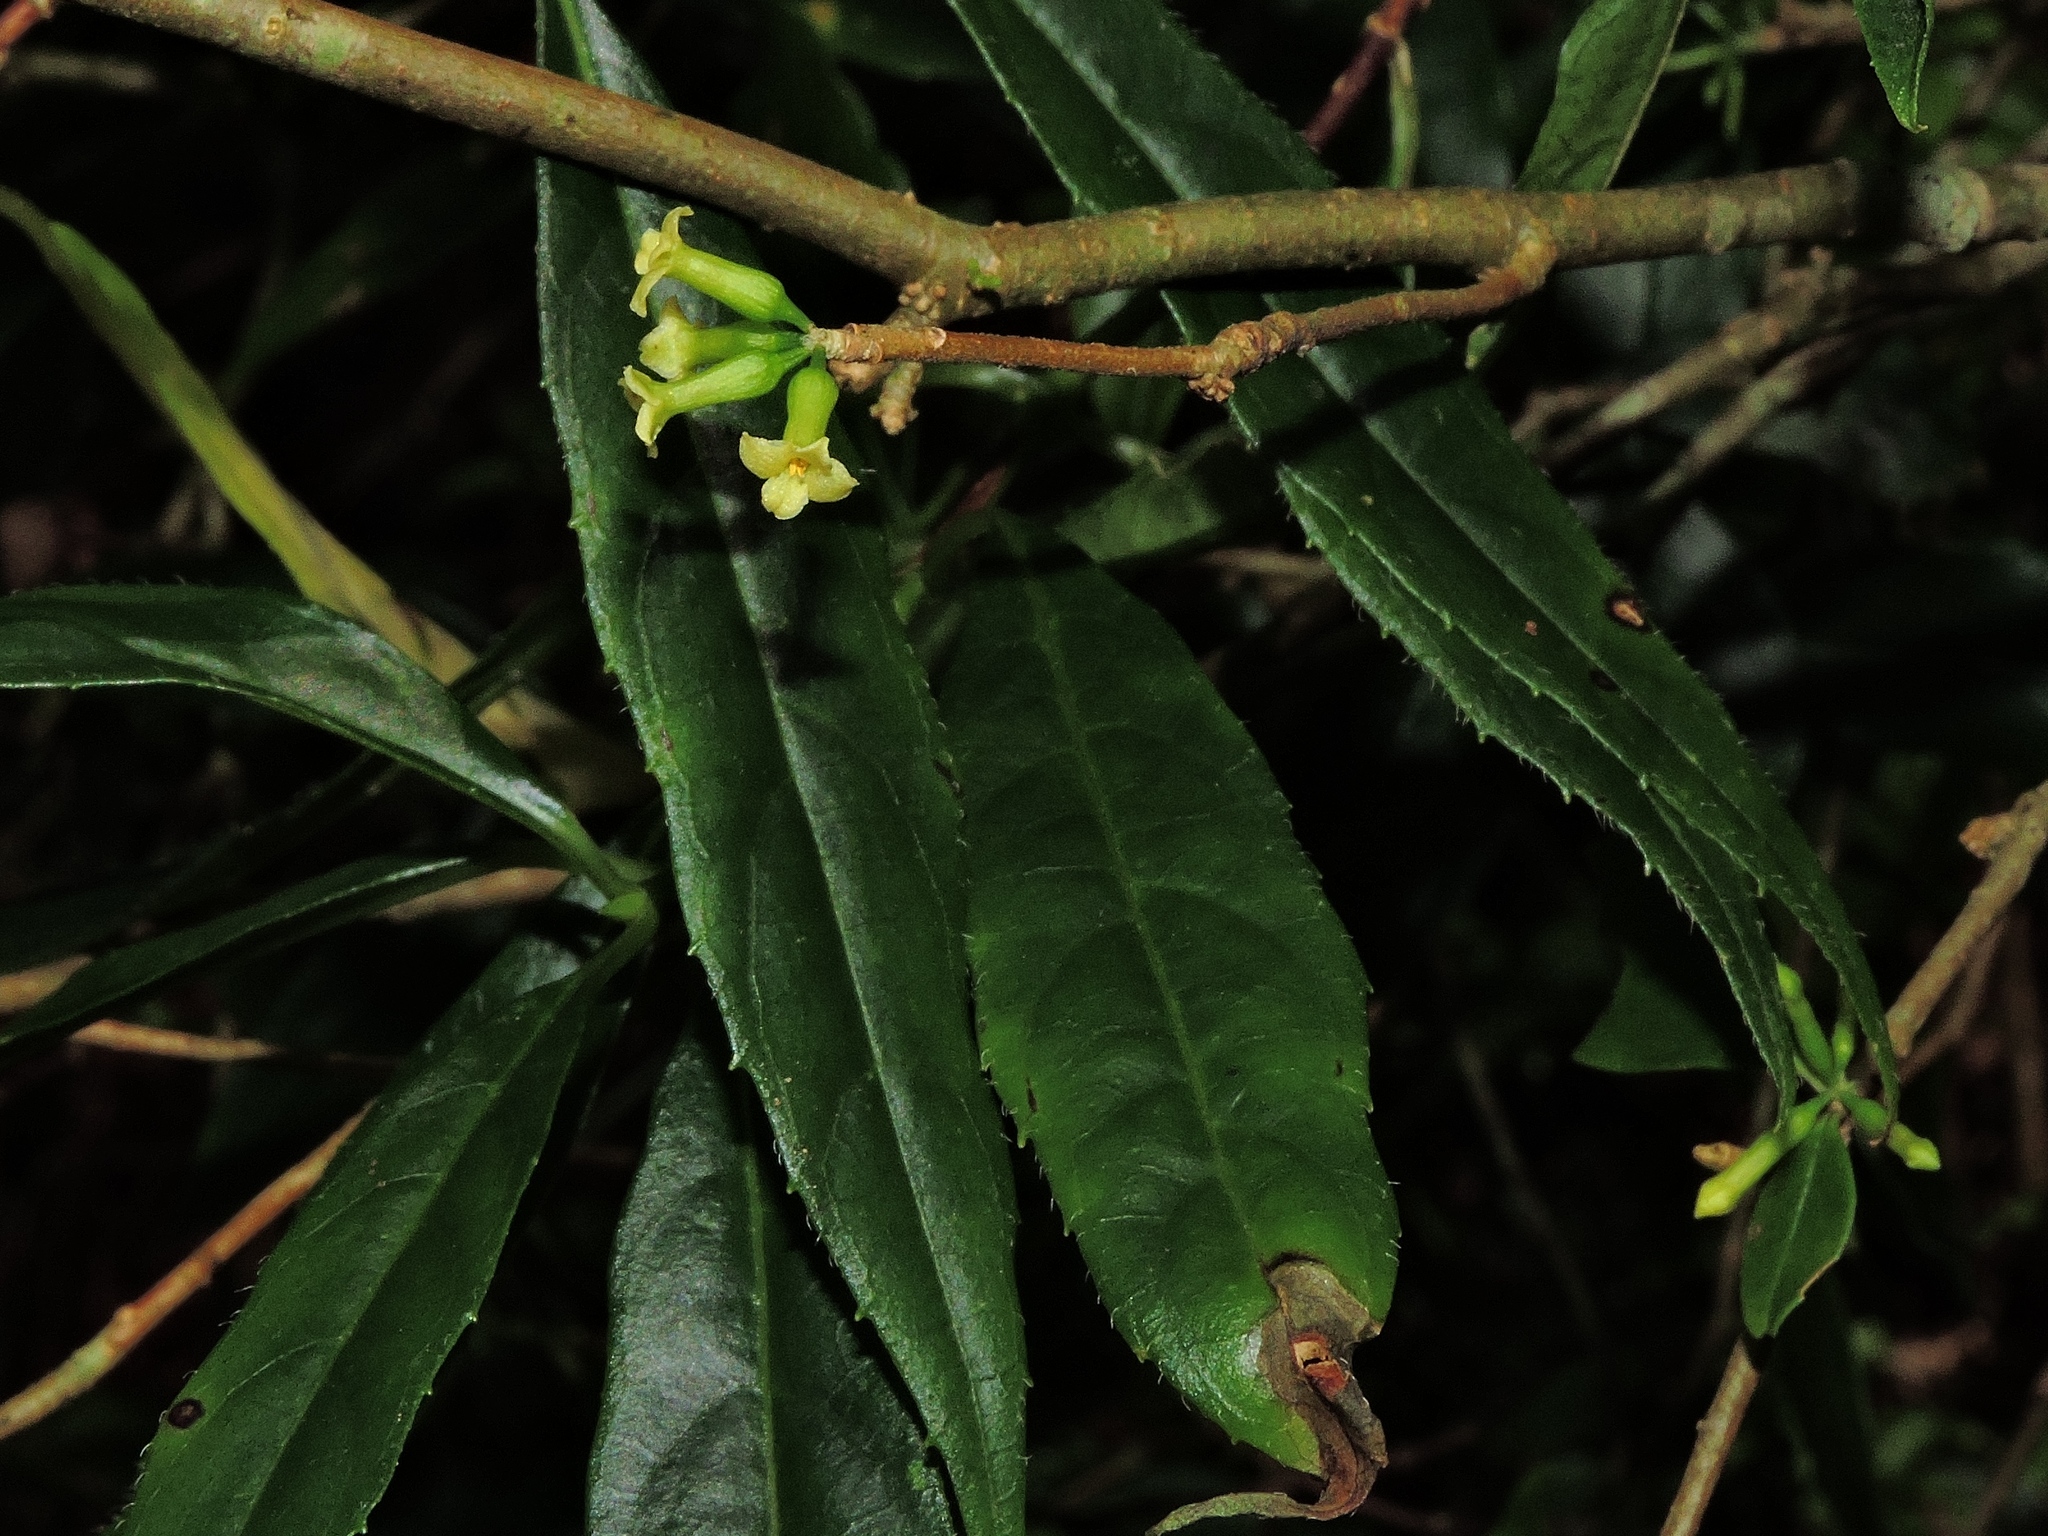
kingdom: Plantae
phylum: Tracheophyta
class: Magnoliopsida
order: Malvales
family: Thymelaeaceae
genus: Daphne
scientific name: Daphne arisanensis
